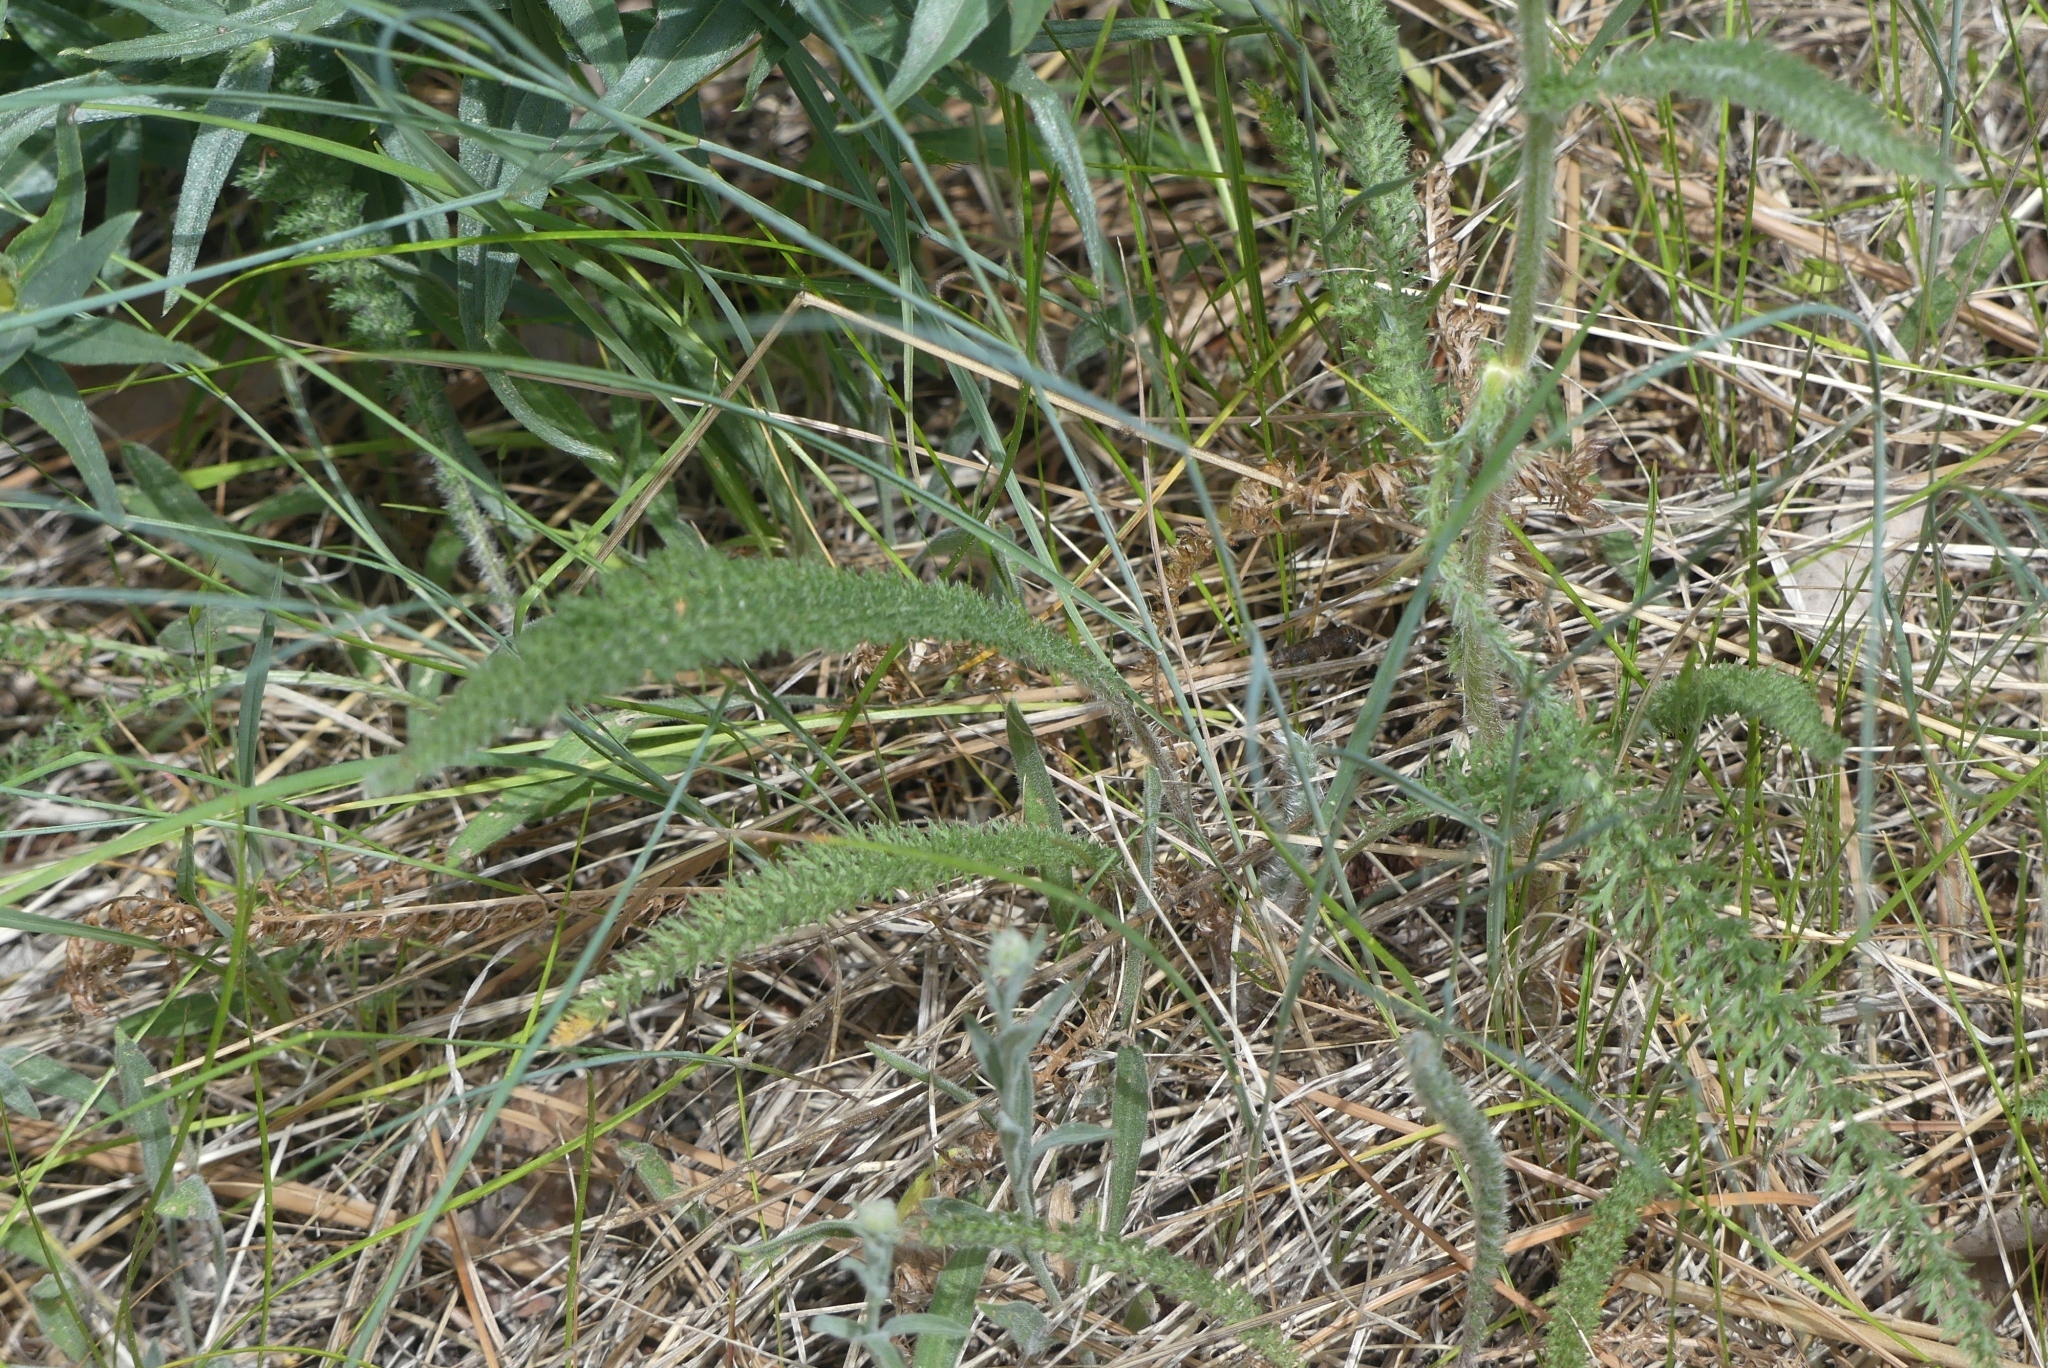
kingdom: Plantae
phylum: Tracheophyta
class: Magnoliopsida
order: Asterales
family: Asteraceae
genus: Achillea
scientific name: Achillea millefolium
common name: Yarrow
